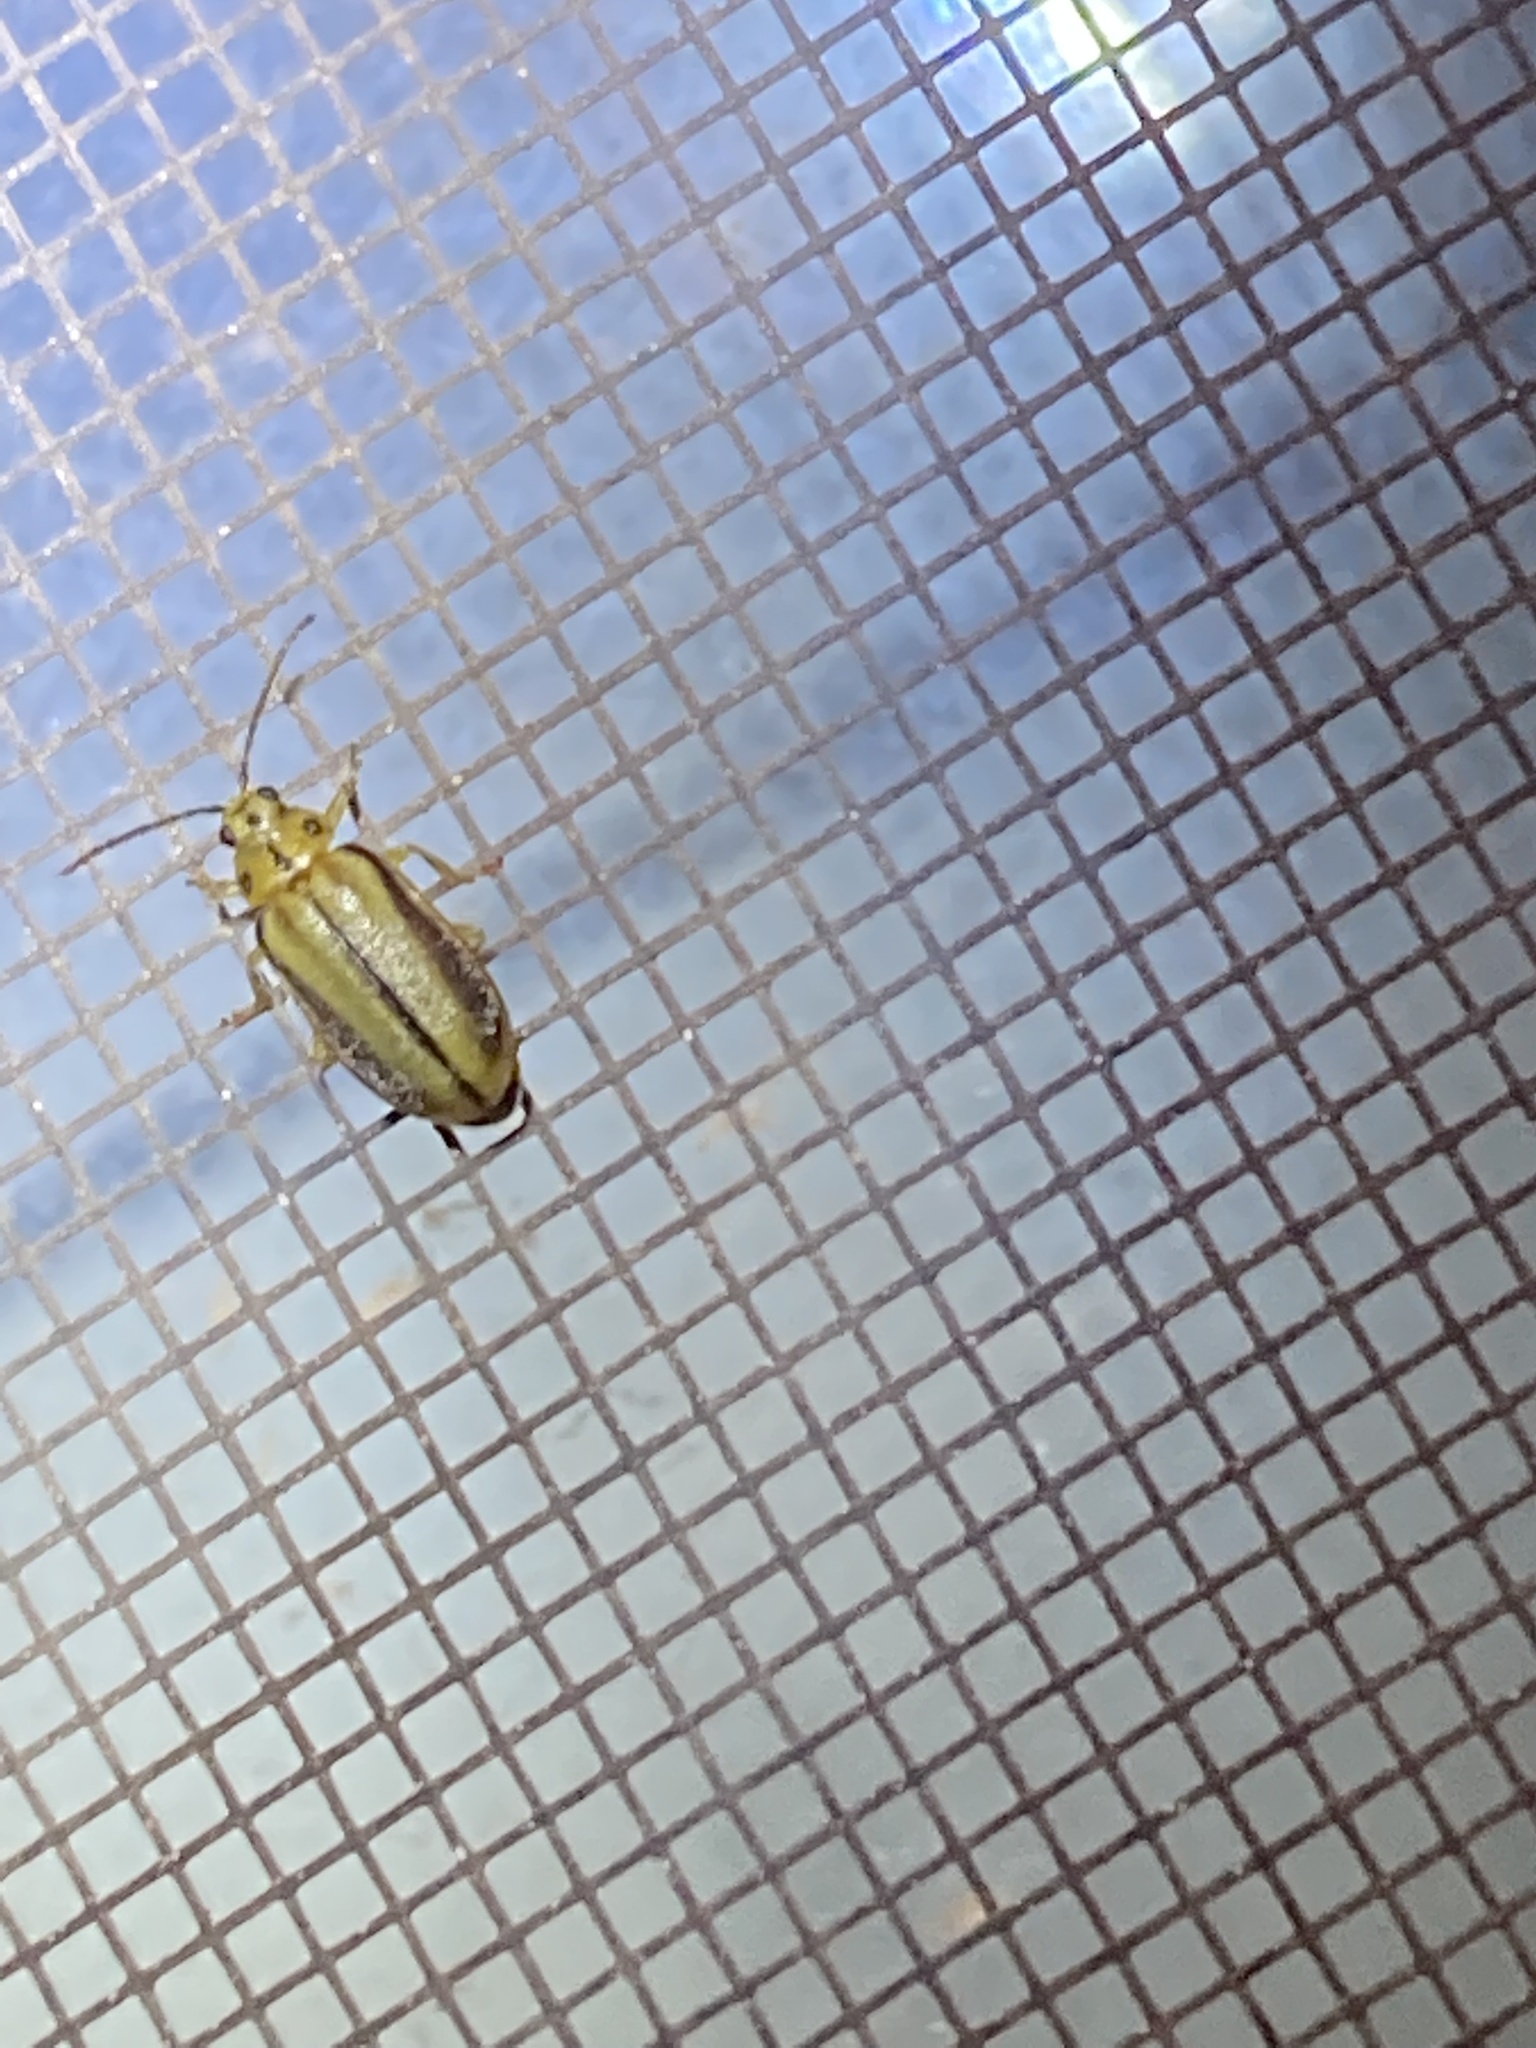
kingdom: Animalia
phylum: Arthropoda
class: Insecta
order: Coleoptera
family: Chrysomelidae
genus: Xanthogaleruca
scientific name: Xanthogaleruca luteola
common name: Elm leaf beetle
